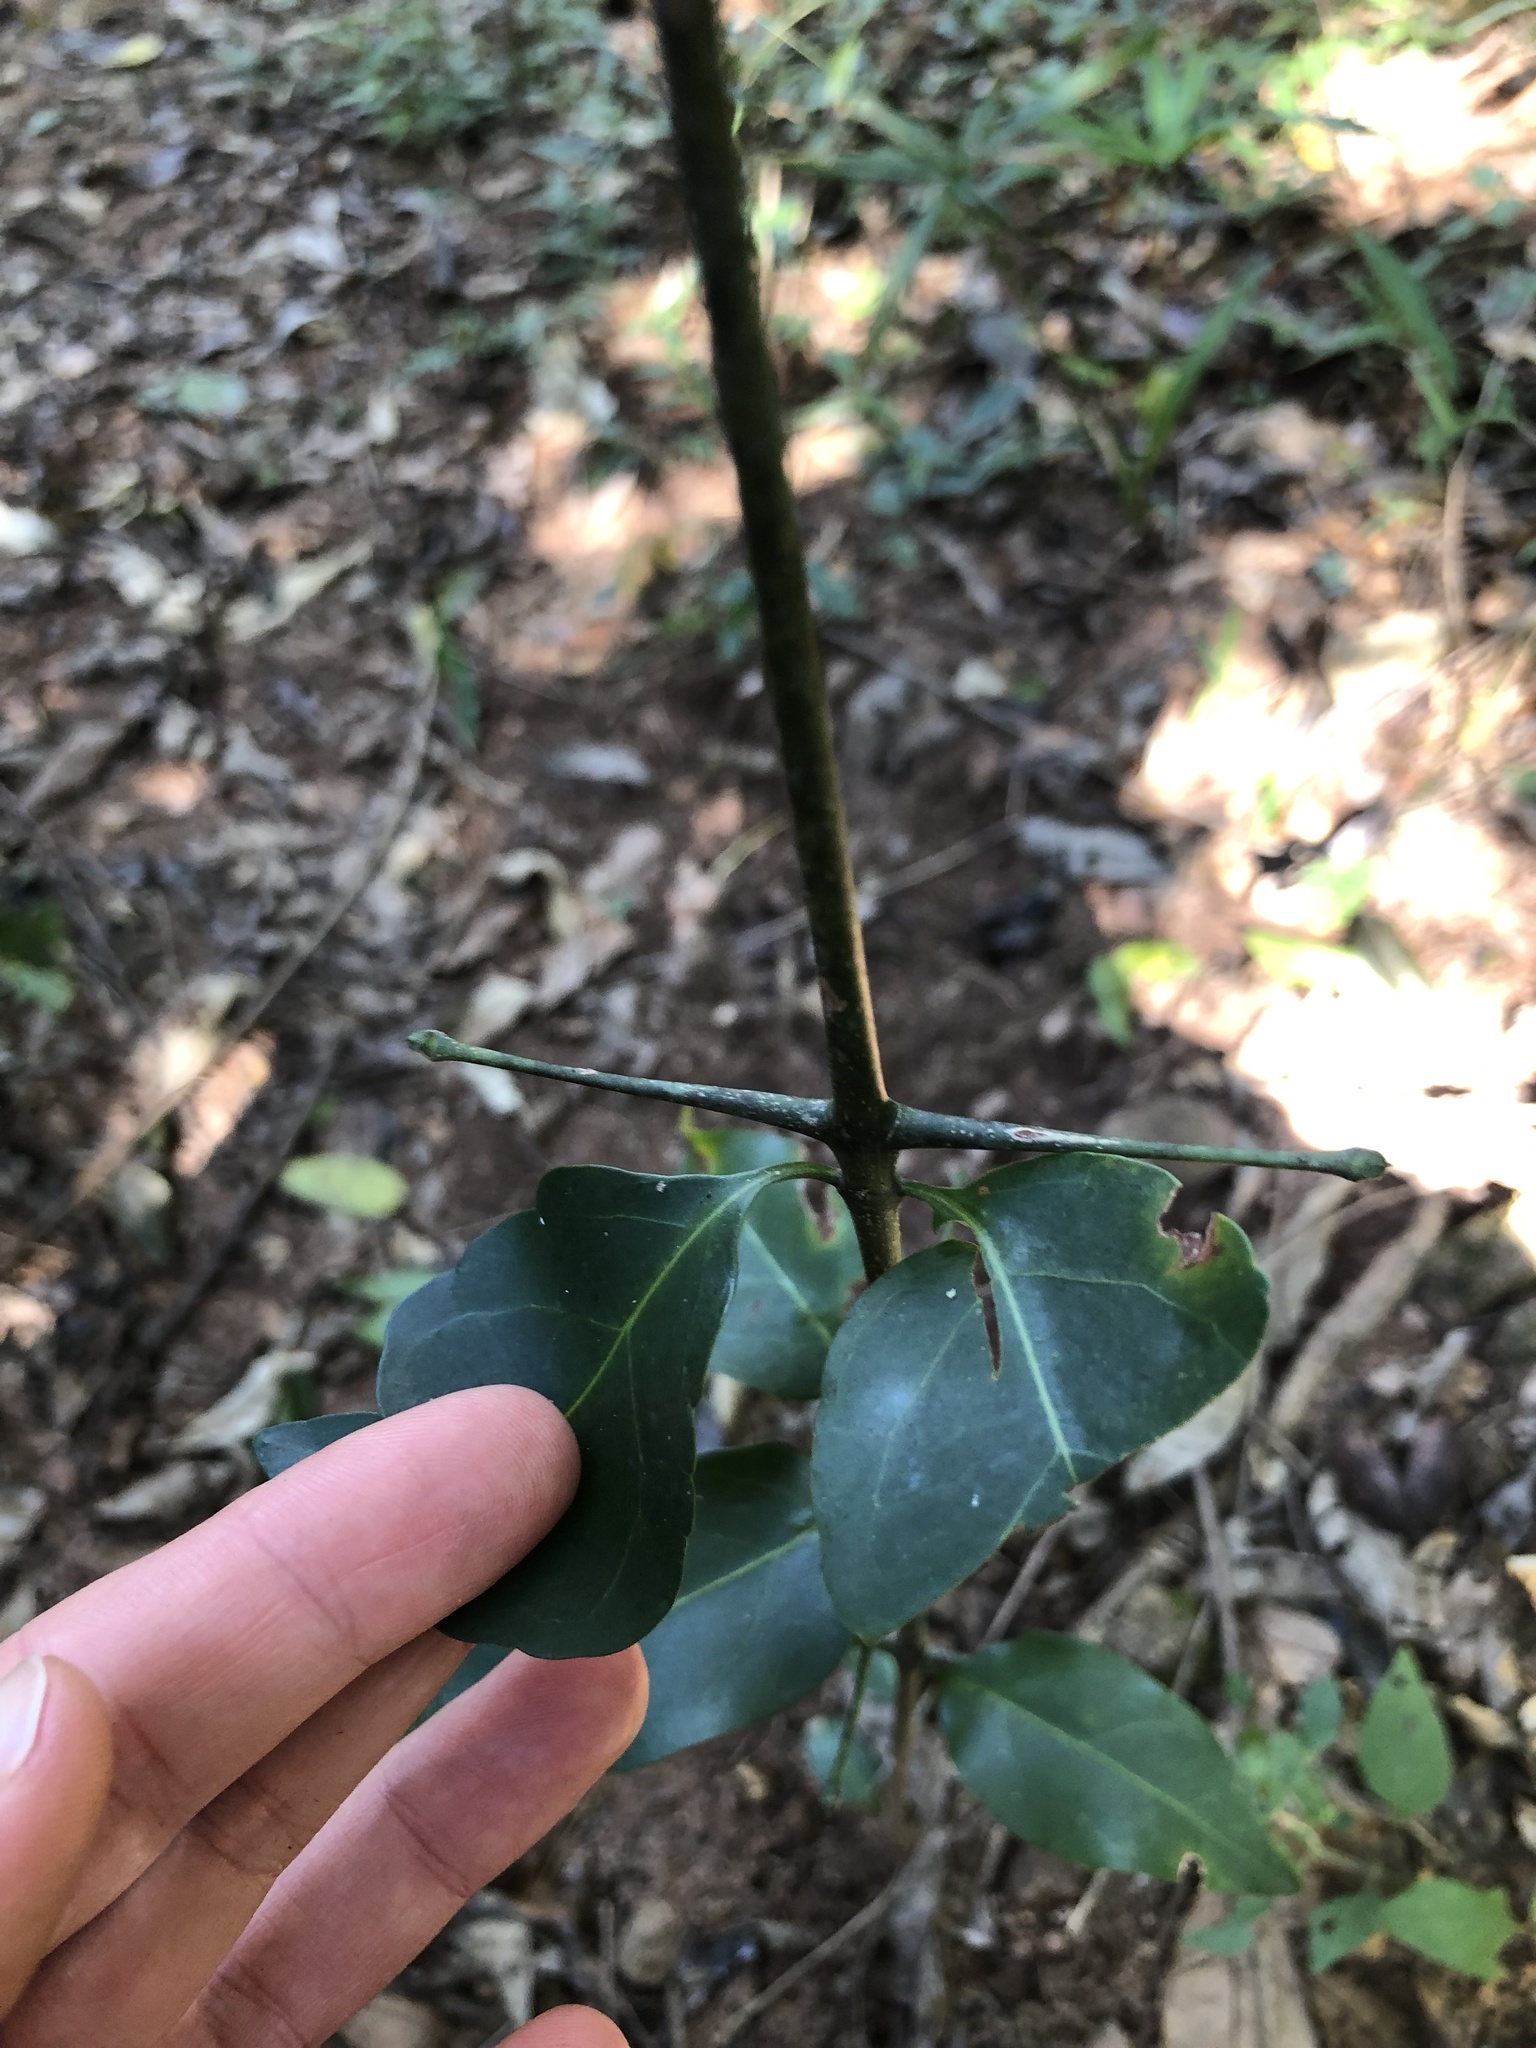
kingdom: Plantae
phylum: Tracheophyta
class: Magnoliopsida
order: Gentianales
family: Rubiaceae
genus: Canthium
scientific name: Canthium inerme
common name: Unarmed turkey-berry
